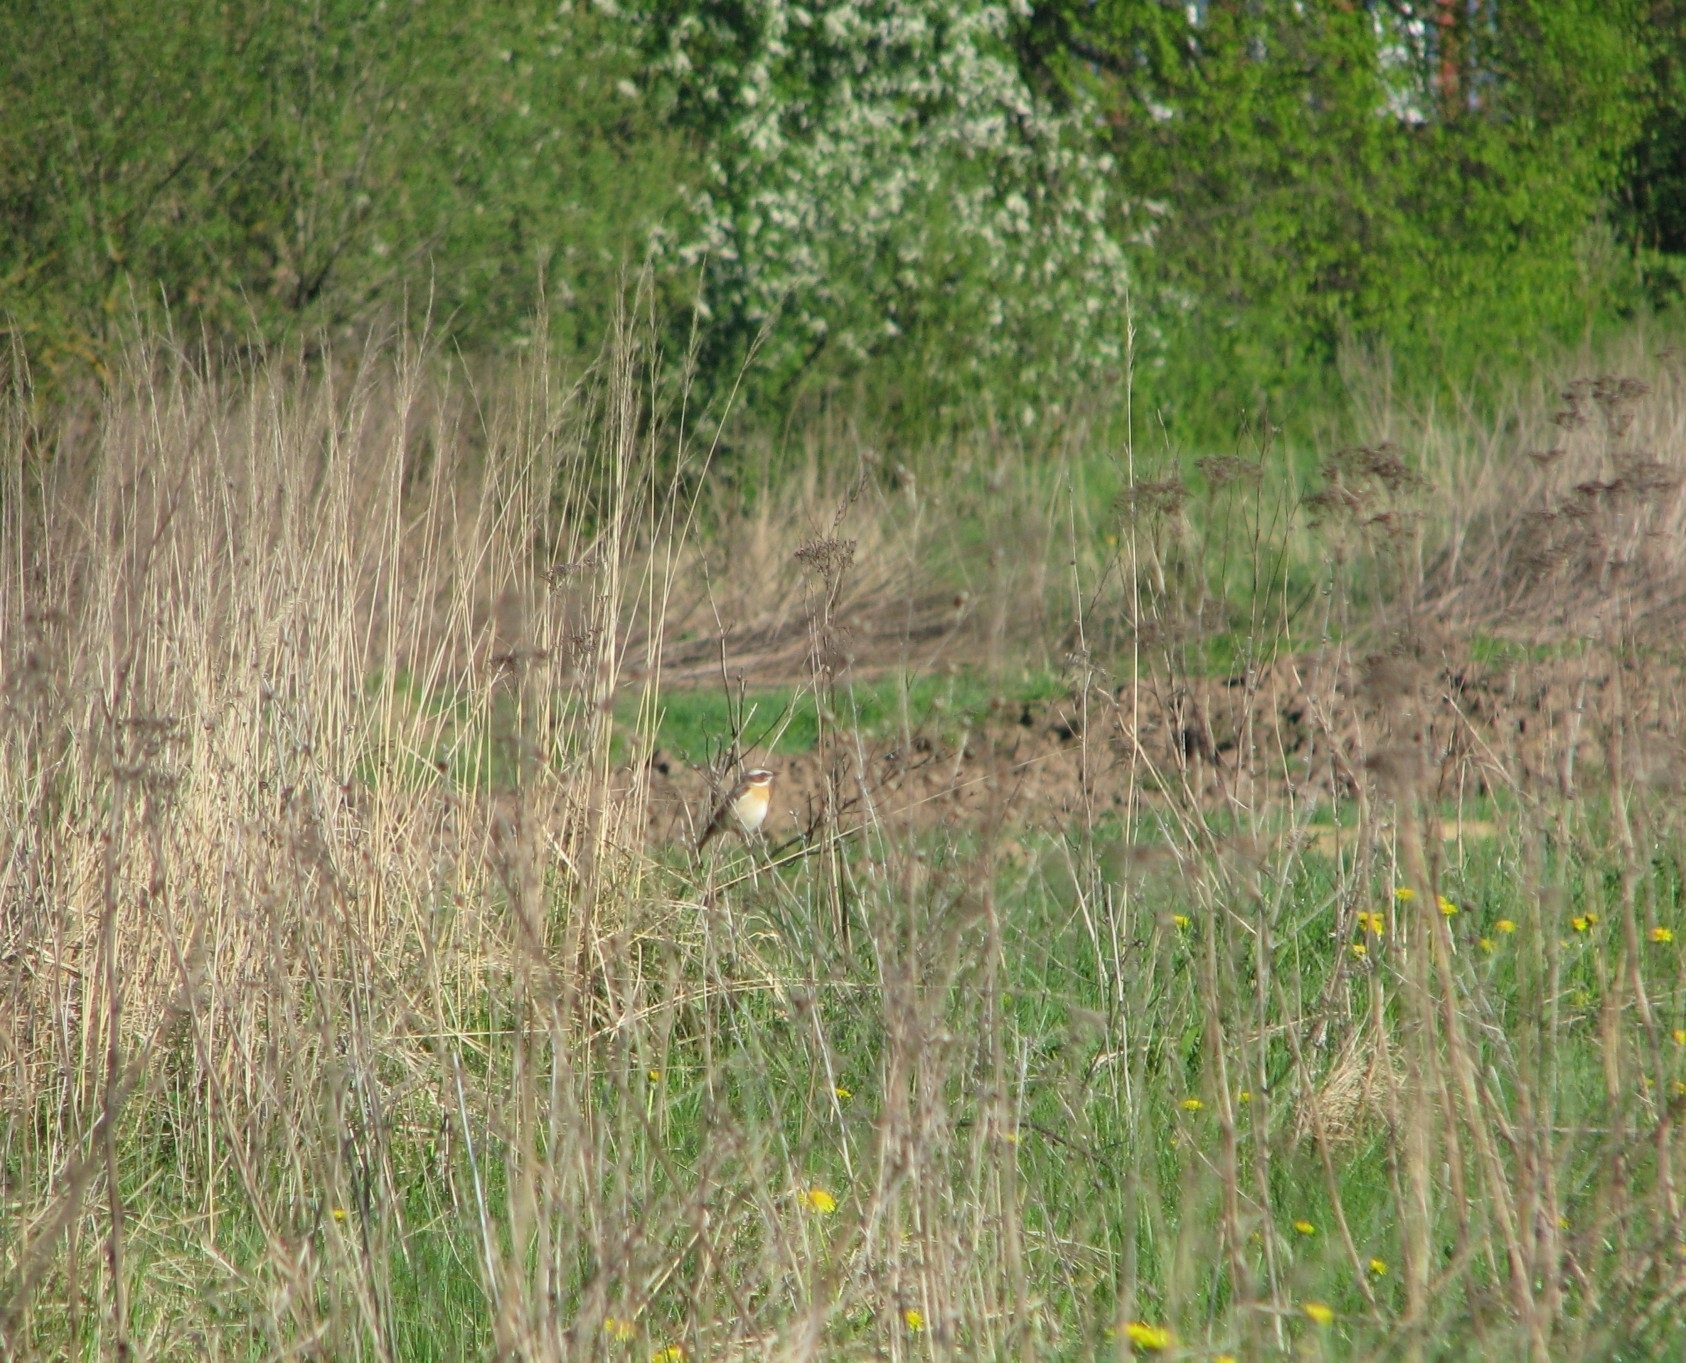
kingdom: Animalia
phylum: Chordata
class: Aves
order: Passeriformes
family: Muscicapidae
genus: Saxicola
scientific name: Saxicola rubetra
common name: Whinchat
